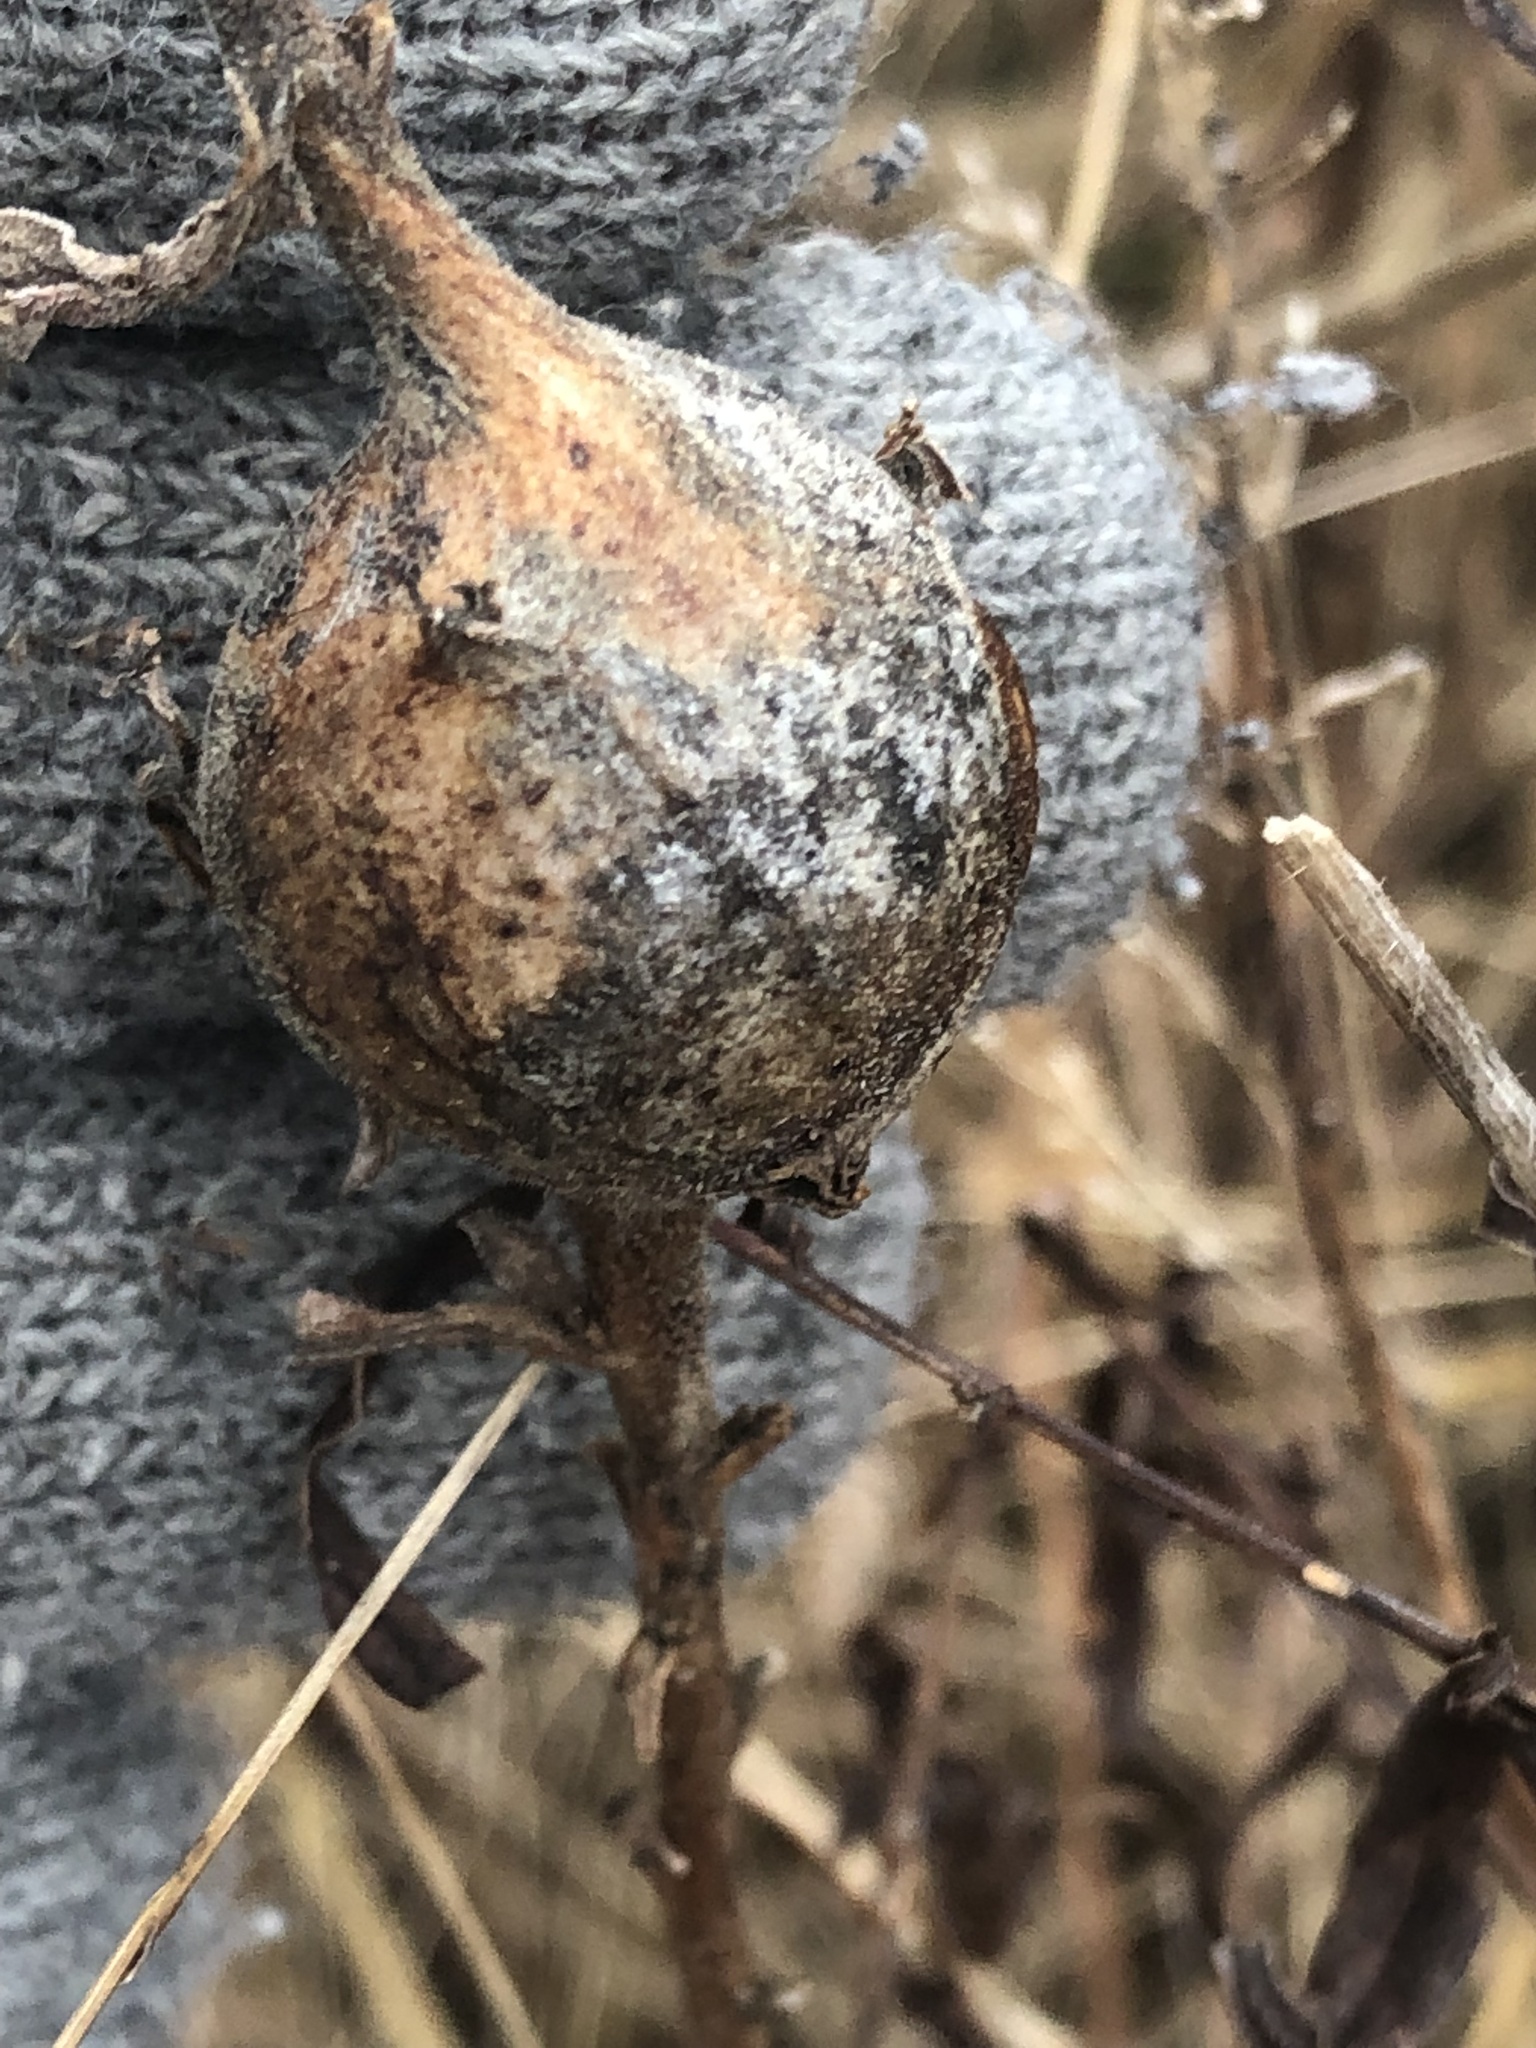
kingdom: Animalia
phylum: Arthropoda
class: Insecta
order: Diptera
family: Tephritidae
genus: Eurosta
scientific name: Eurosta solidaginis
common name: Goldenrod gall fly
